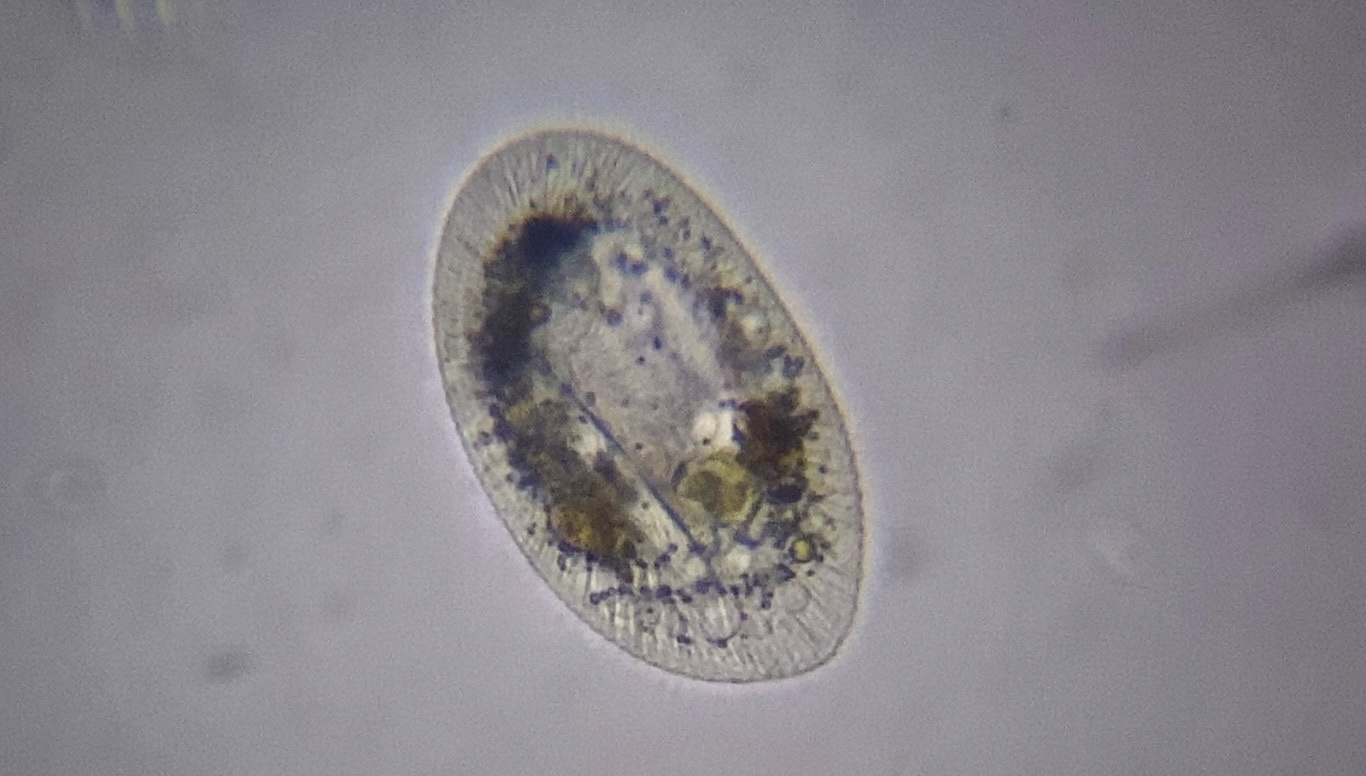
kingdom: Chromista
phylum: Ciliophora
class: Oligohymenophorea
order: Hymenostomatida
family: Frontoniidae
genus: Frontonia
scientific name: Frontonia acuminata
